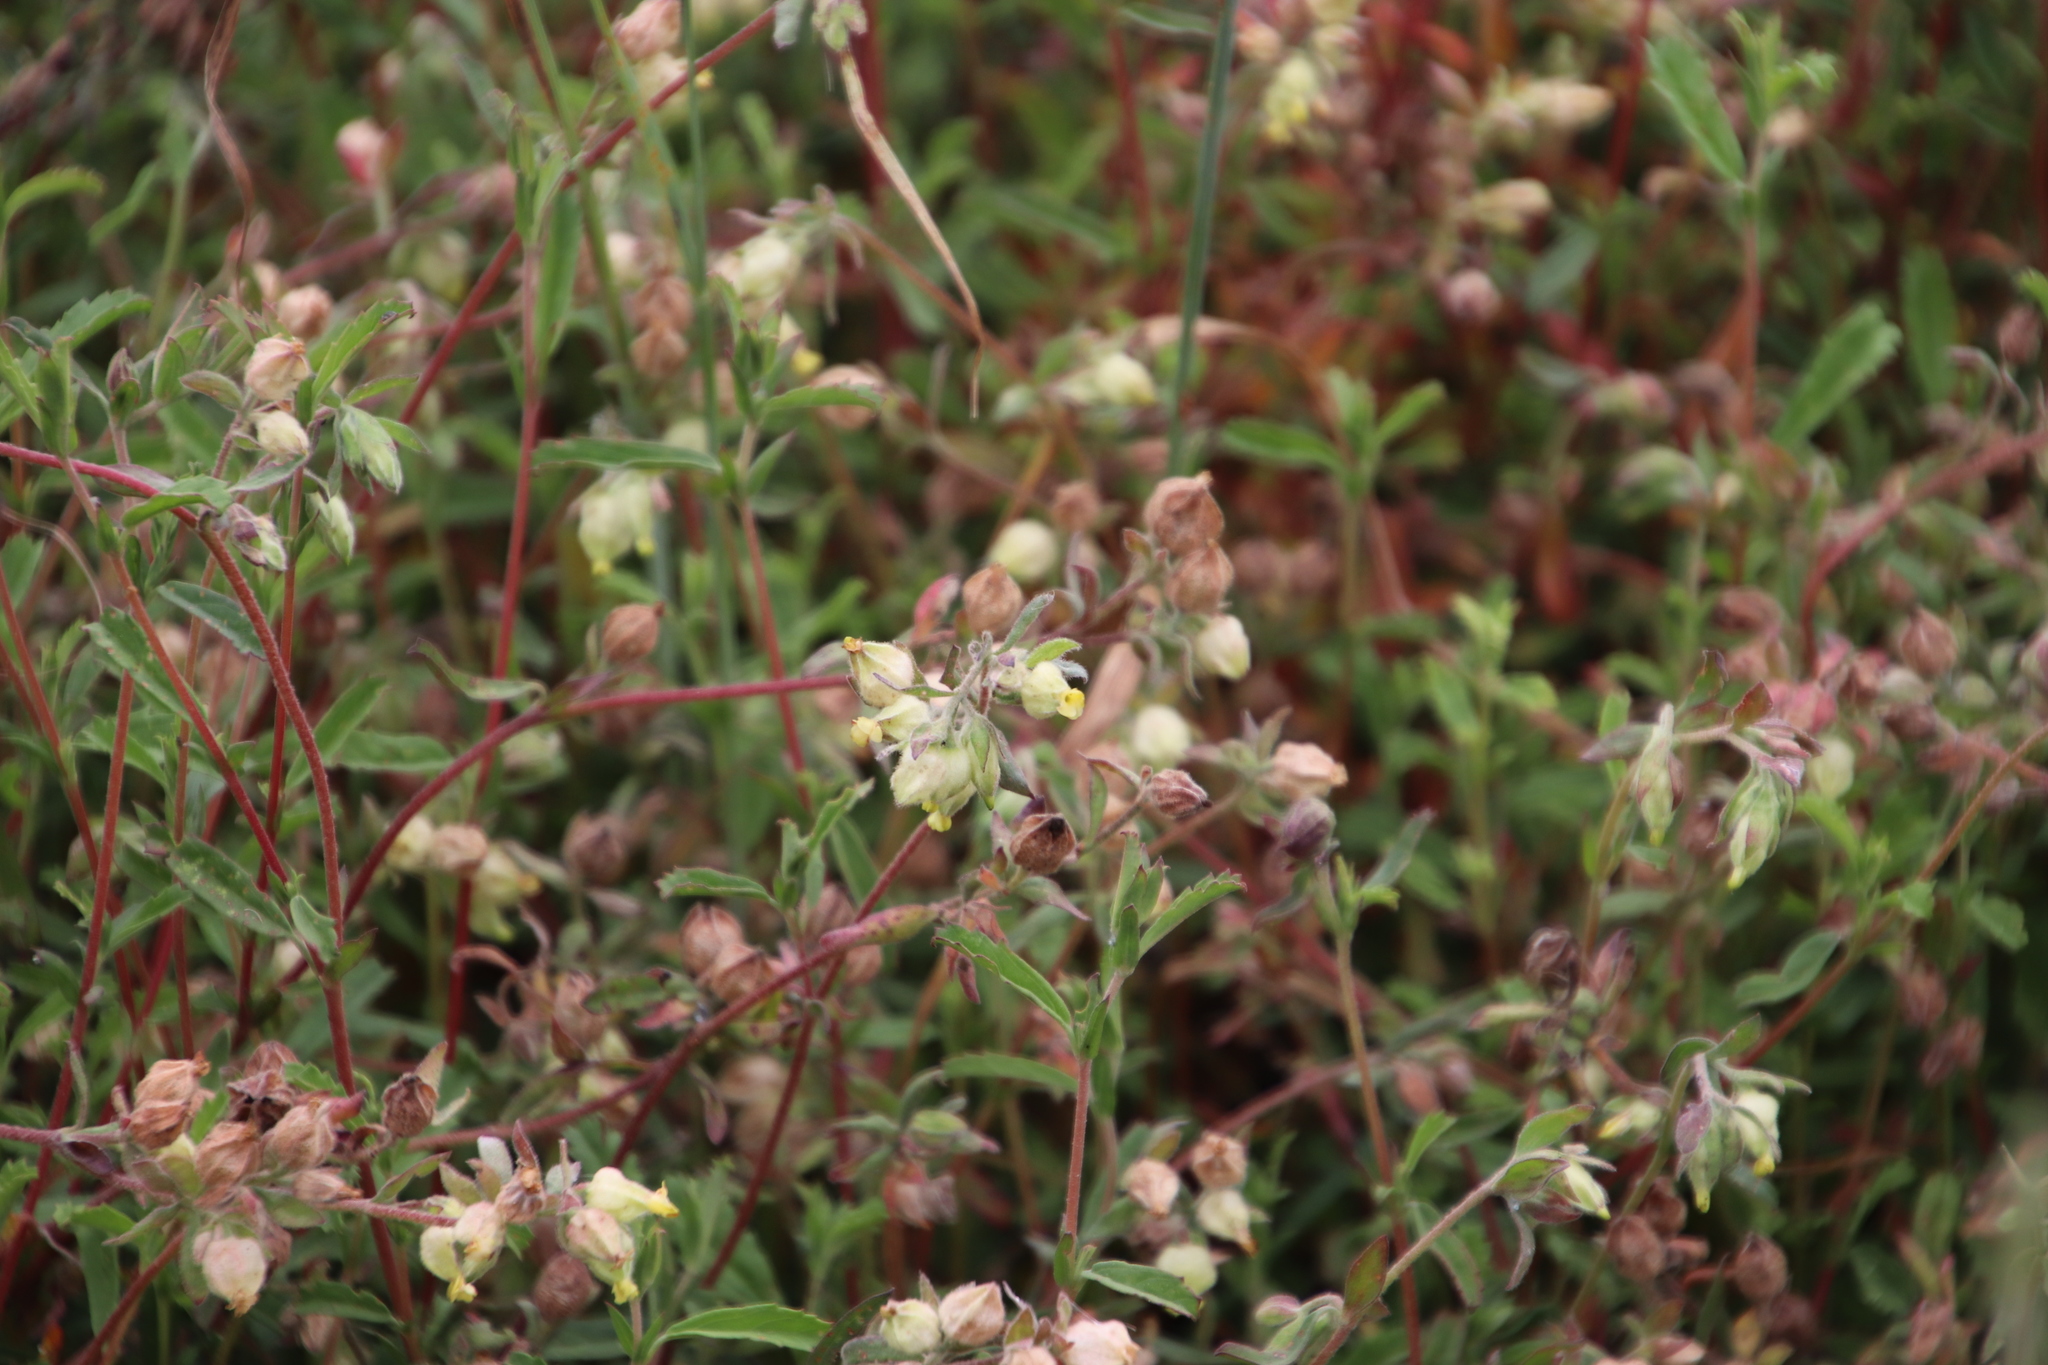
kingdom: Plantae
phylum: Tracheophyta
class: Magnoliopsida
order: Malvales
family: Malvaceae
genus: Hermannia
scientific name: Hermannia hyssopifolia
